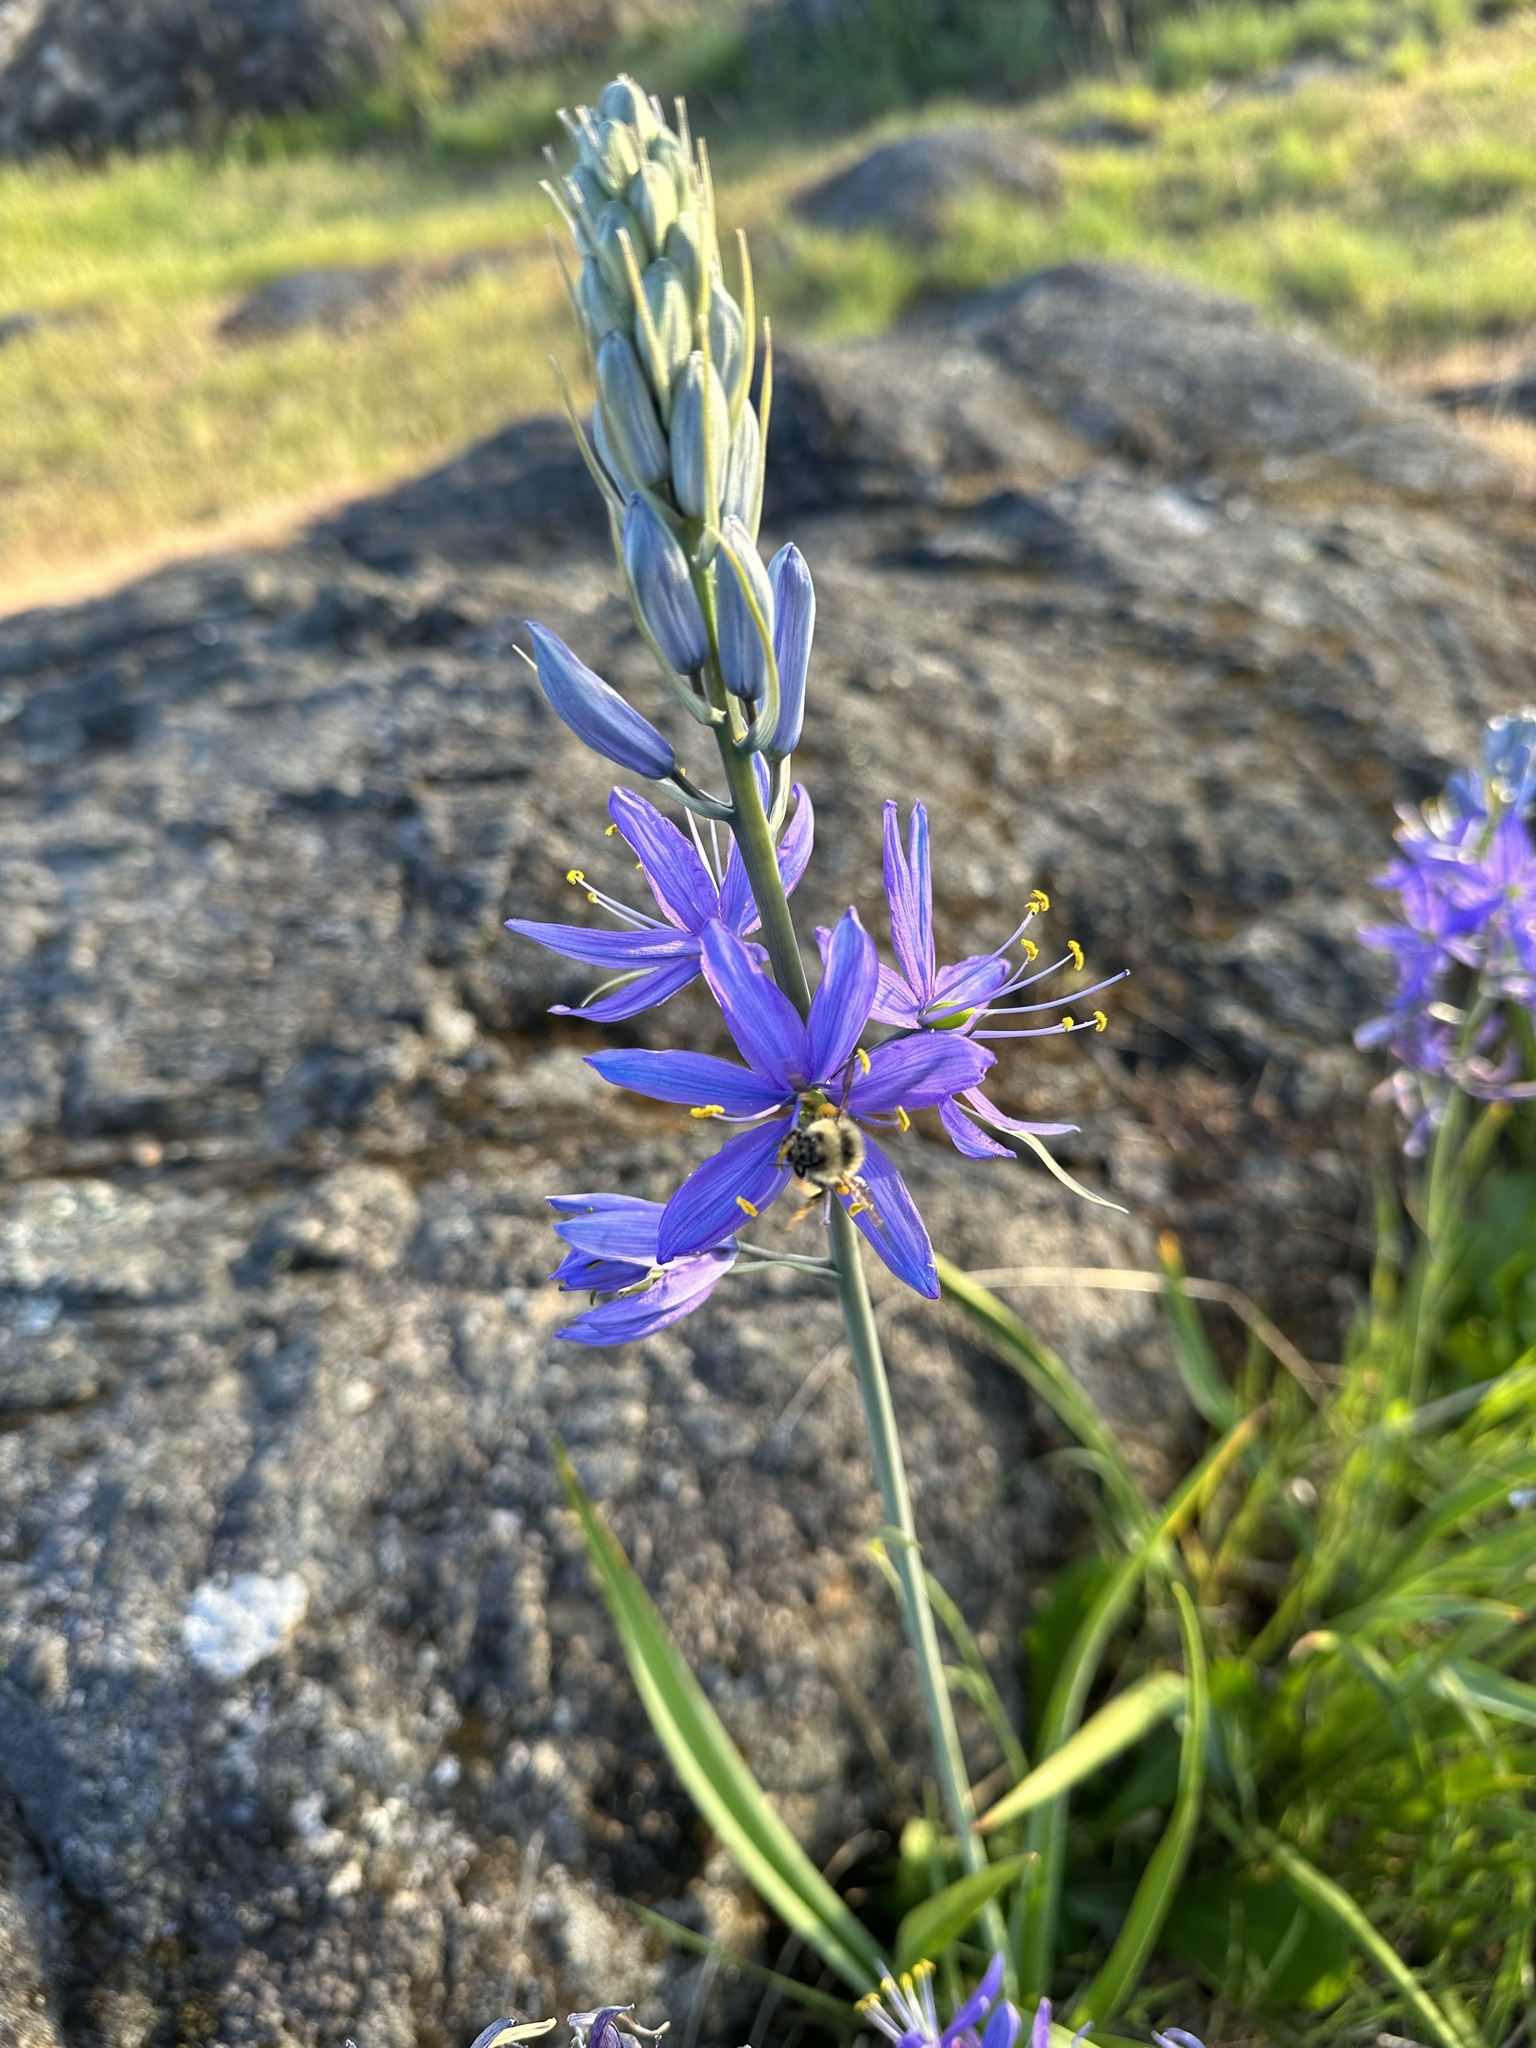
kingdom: Animalia
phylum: Arthropoda
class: Insecta
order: Hymenoptera
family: Apidae
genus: Bombus
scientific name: Bombus mixtus
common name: Fuzzy-horned bumble bee
